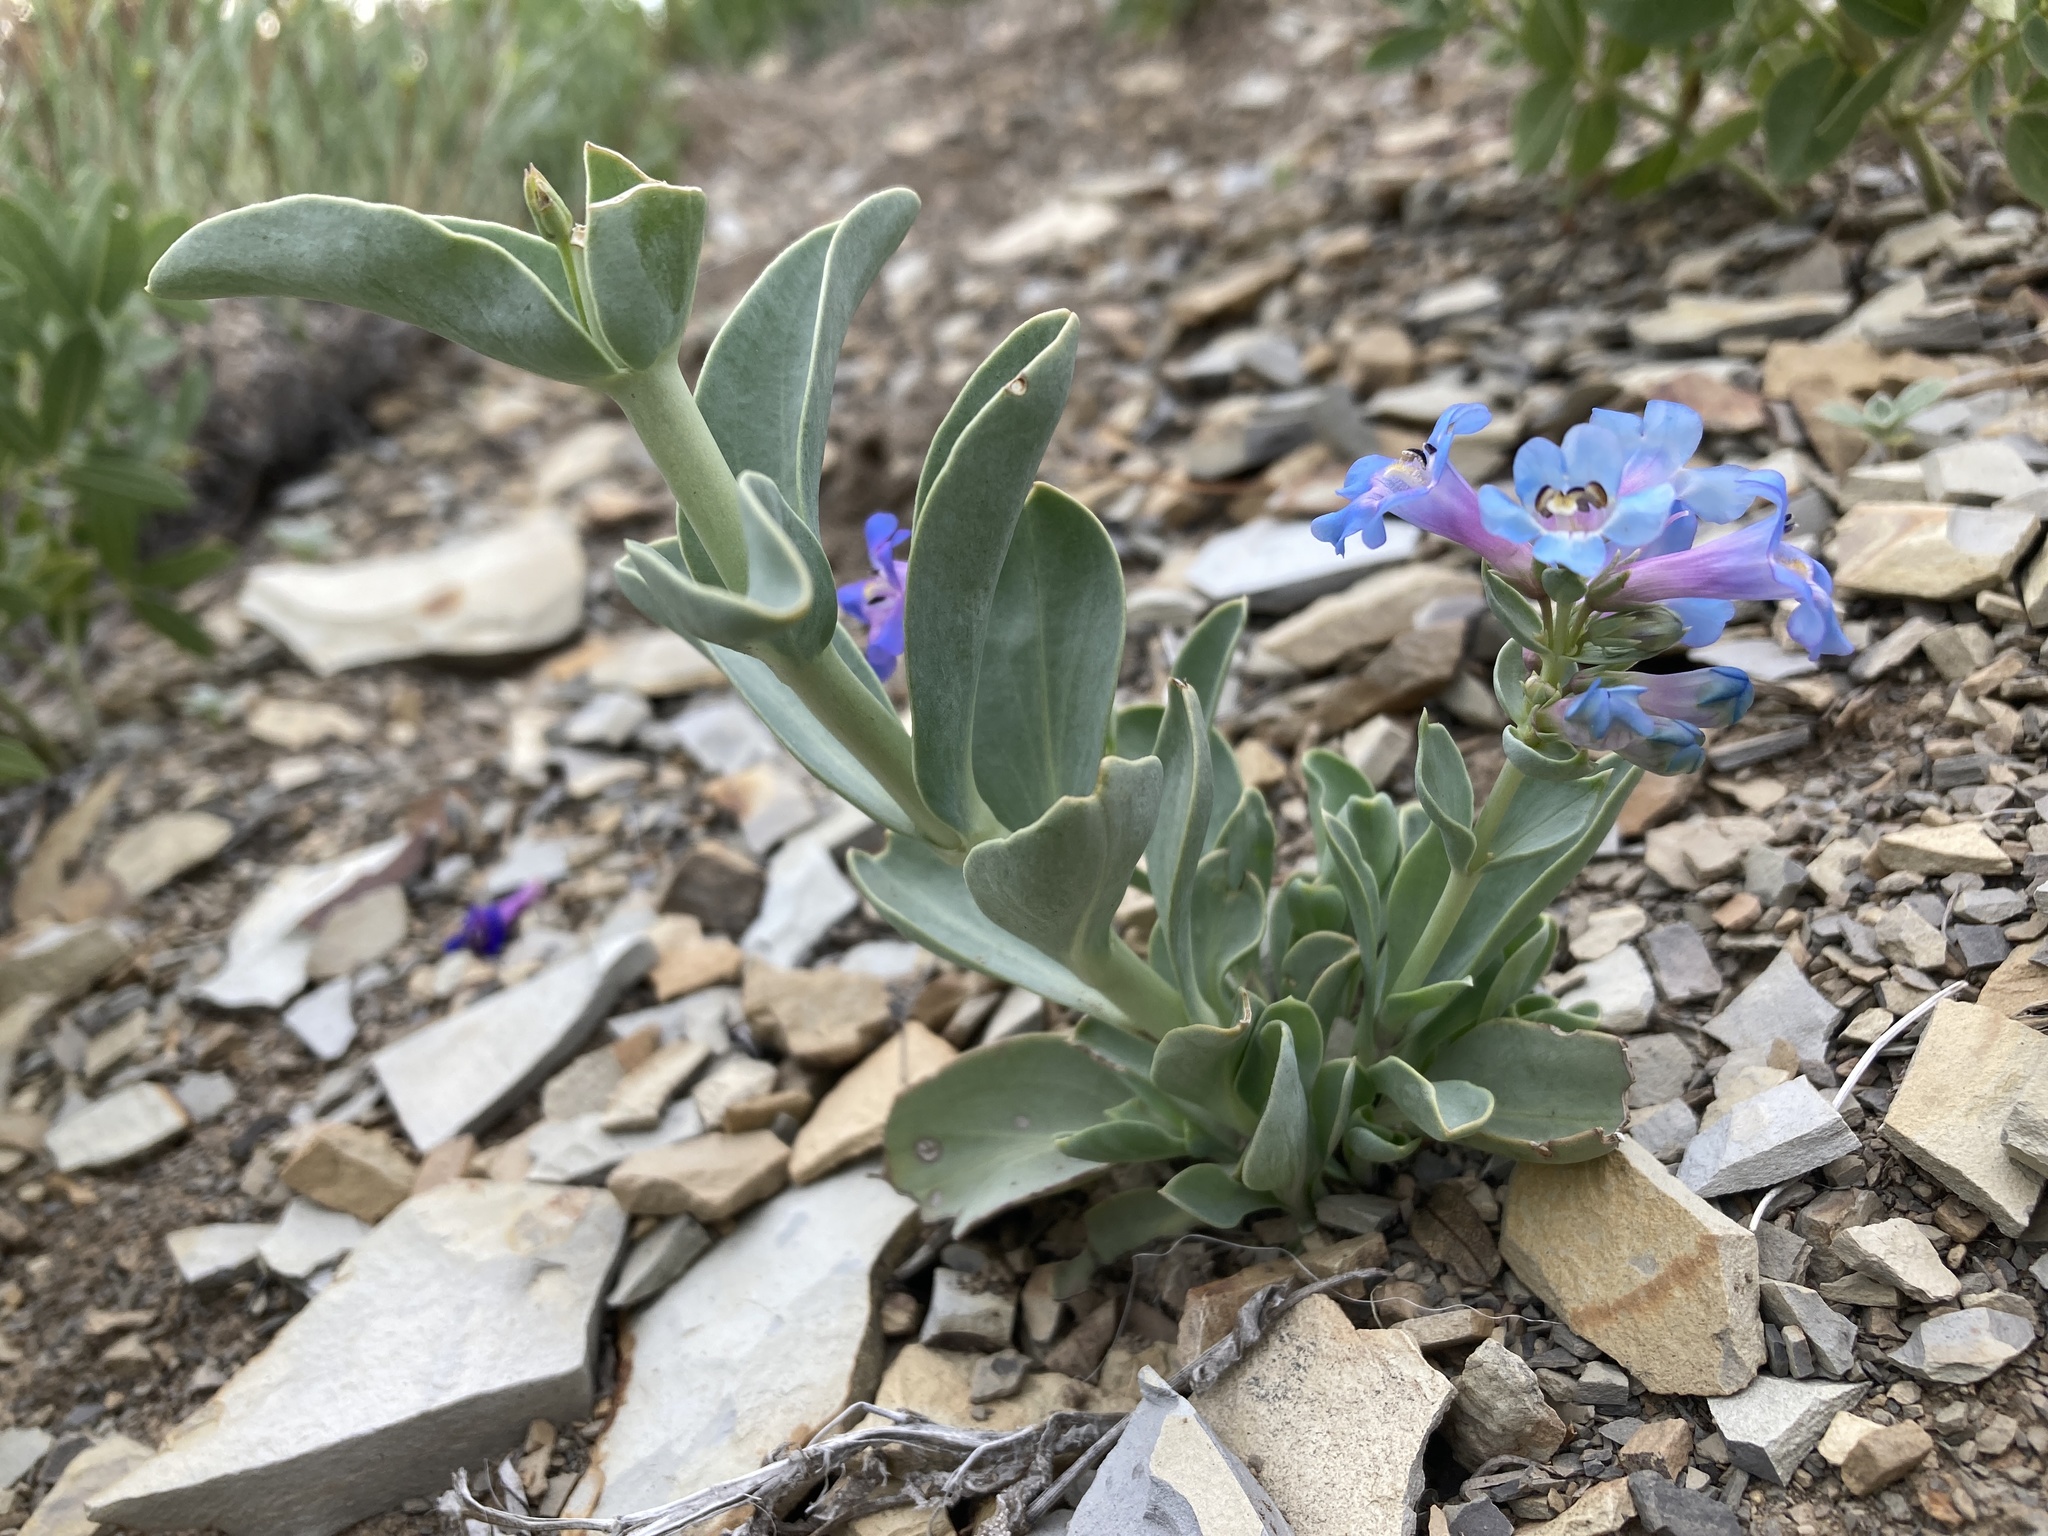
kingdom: Plantae
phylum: Tracheophyta
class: Magnoliopsida
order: Lamiales
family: Plantaginaceae
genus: Penstemon
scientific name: Penstemon nitidus
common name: Shining penstemon
